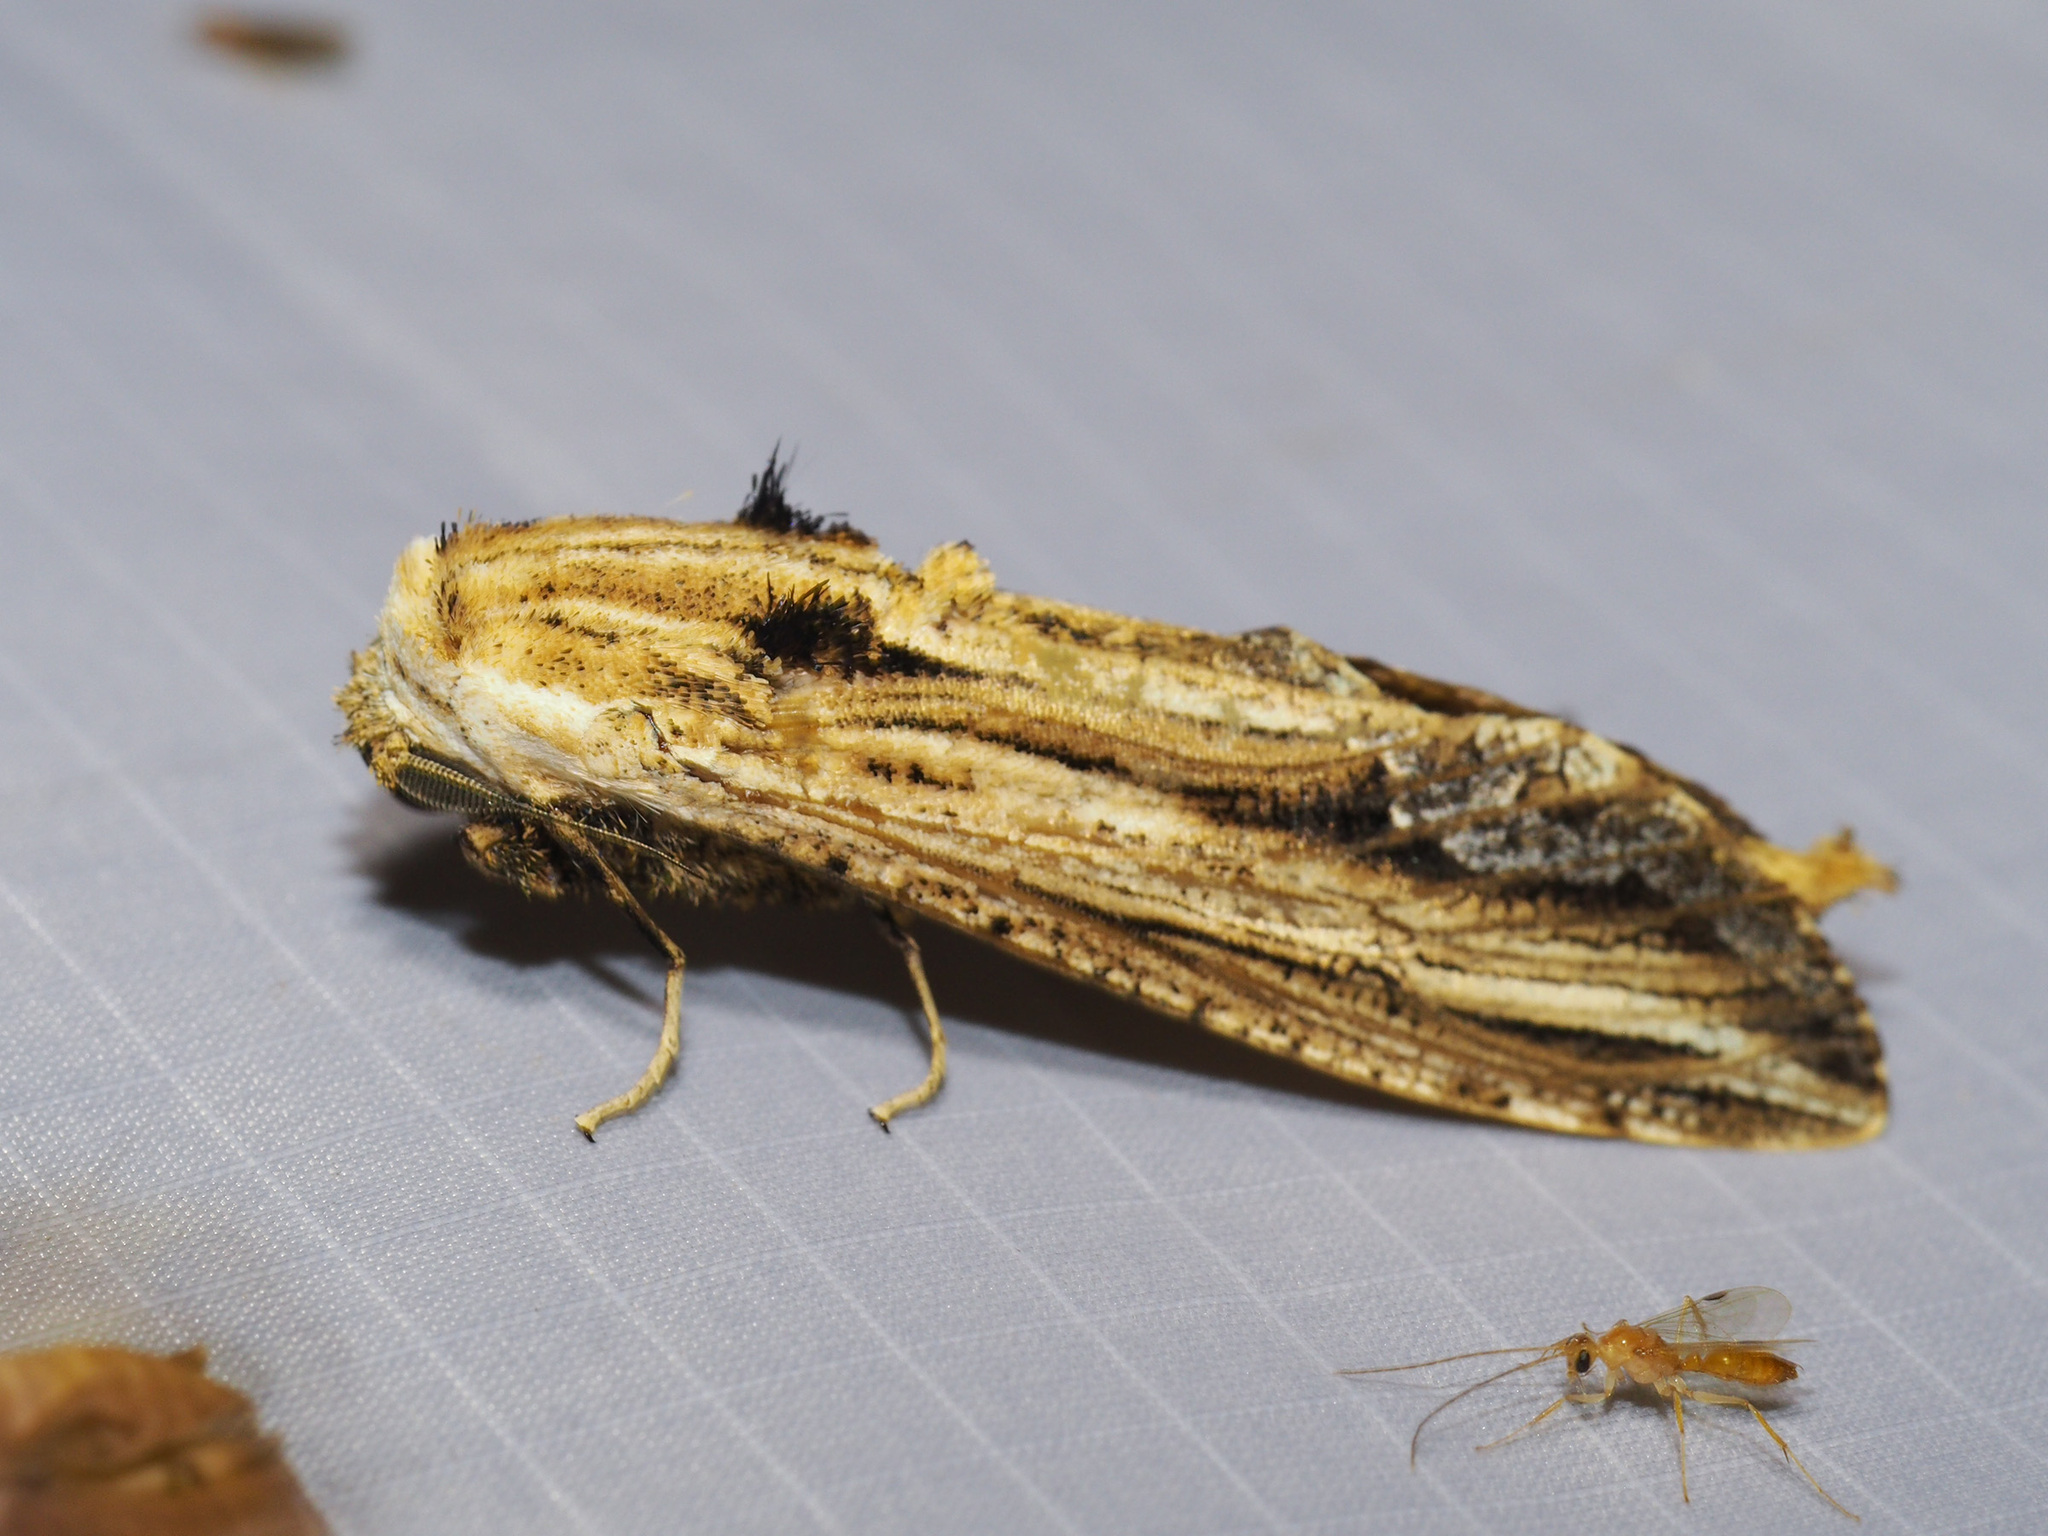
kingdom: Animalia
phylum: Arthropoda
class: Insecta
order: Lepidoptera
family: Cossidae
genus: Duomitus
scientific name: Duomitus ceramicus
